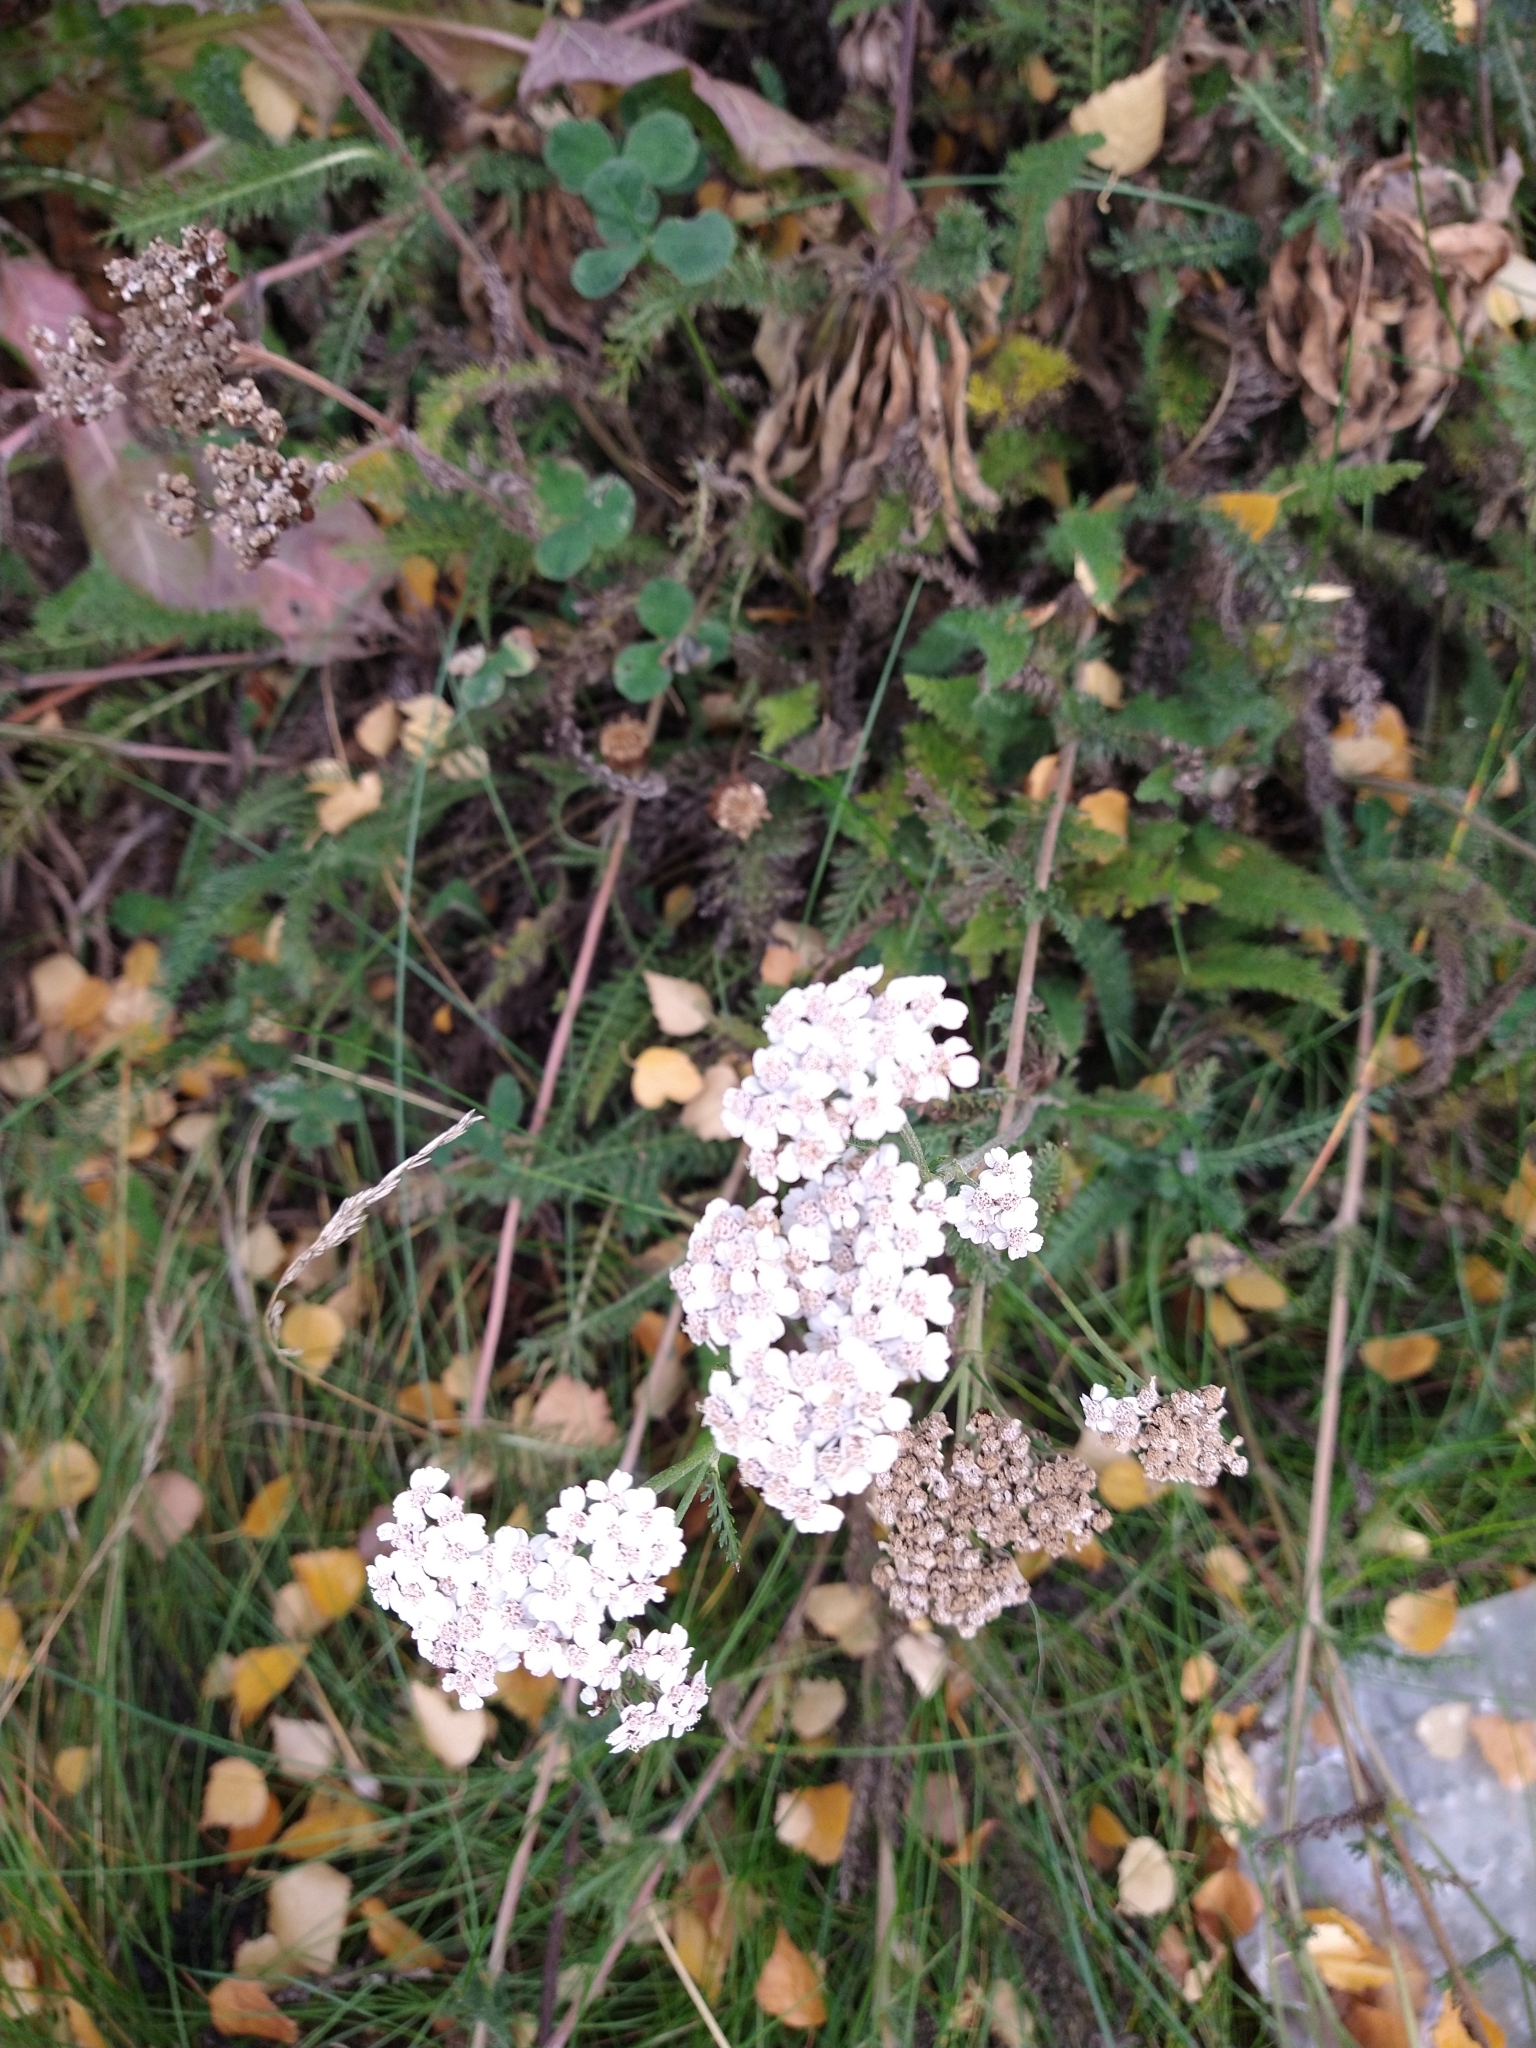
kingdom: Plantae
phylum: Tracheophyta
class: Magnoliopsida
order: Asterales
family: Asteraceae
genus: Achillea
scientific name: Achillea millefolium
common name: Yarrow
